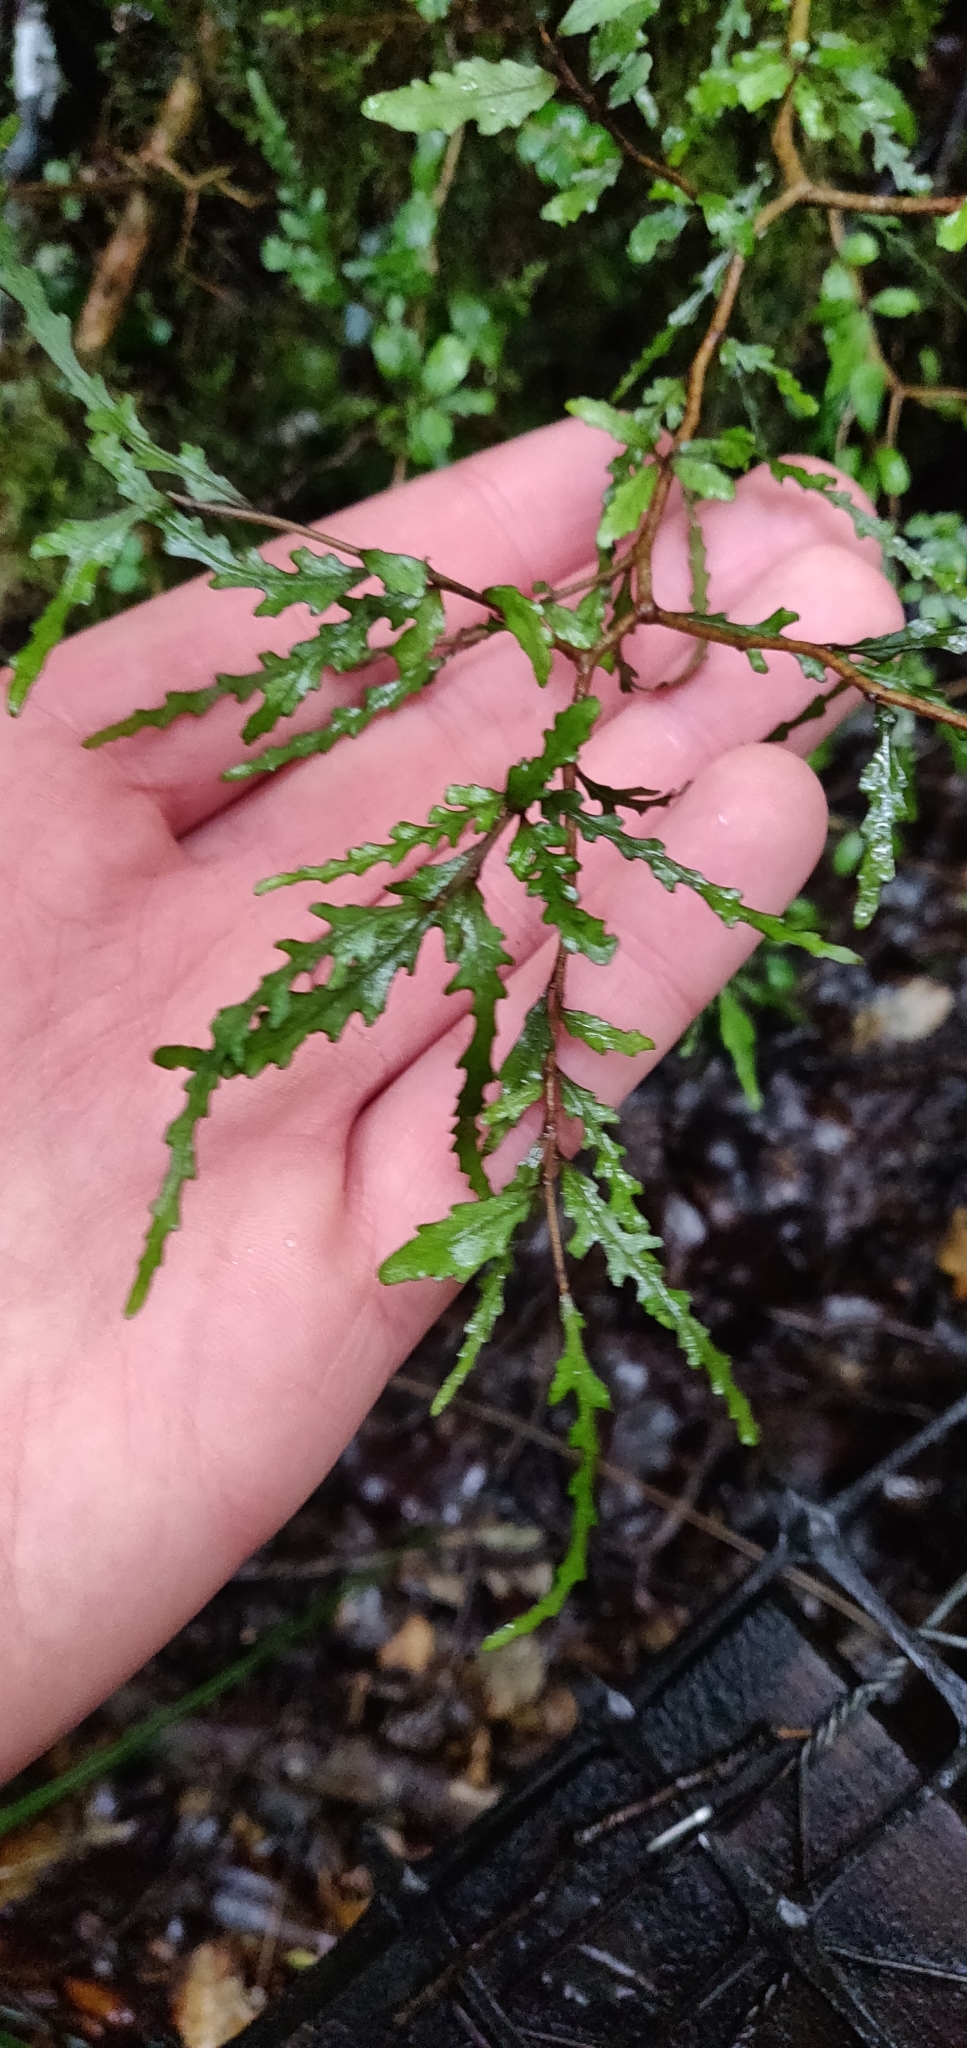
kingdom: Plantae
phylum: Tracheophyta
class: Magnoliopsida
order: Oxalidales
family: Elaeocarpaceae
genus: Elaeocarpus
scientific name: Elaeocarpus hookerianus
